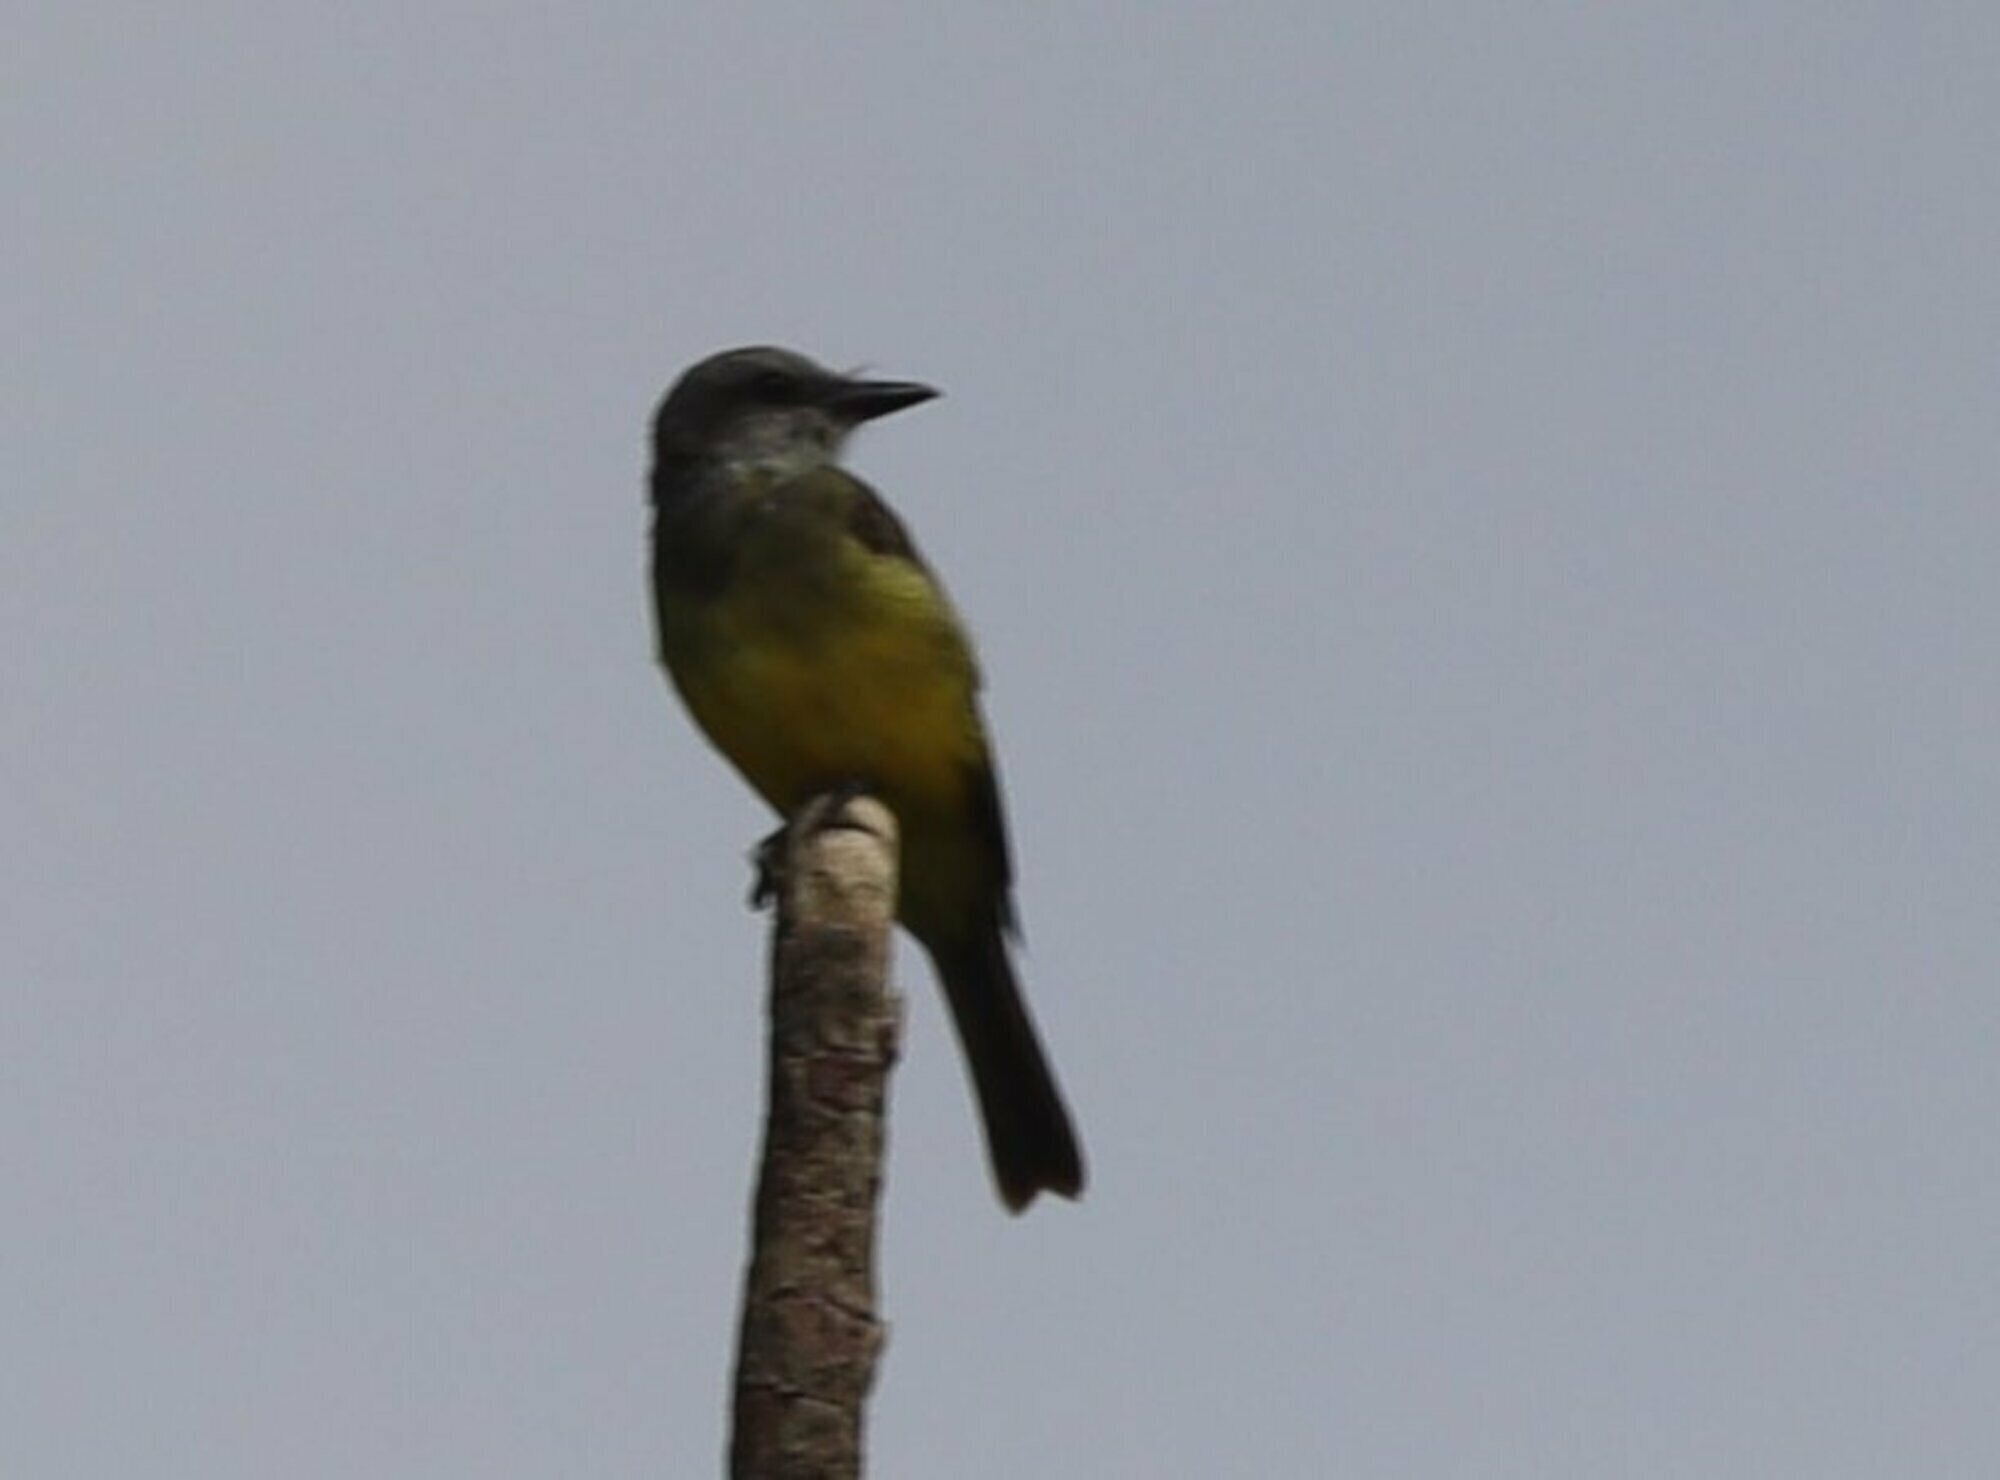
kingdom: Animalia
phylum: Chordata
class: Aves
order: Passeriformes
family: Tyrannidae
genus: Tyrannus
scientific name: Tyrannus melancholicus
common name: Tropical kingbird
